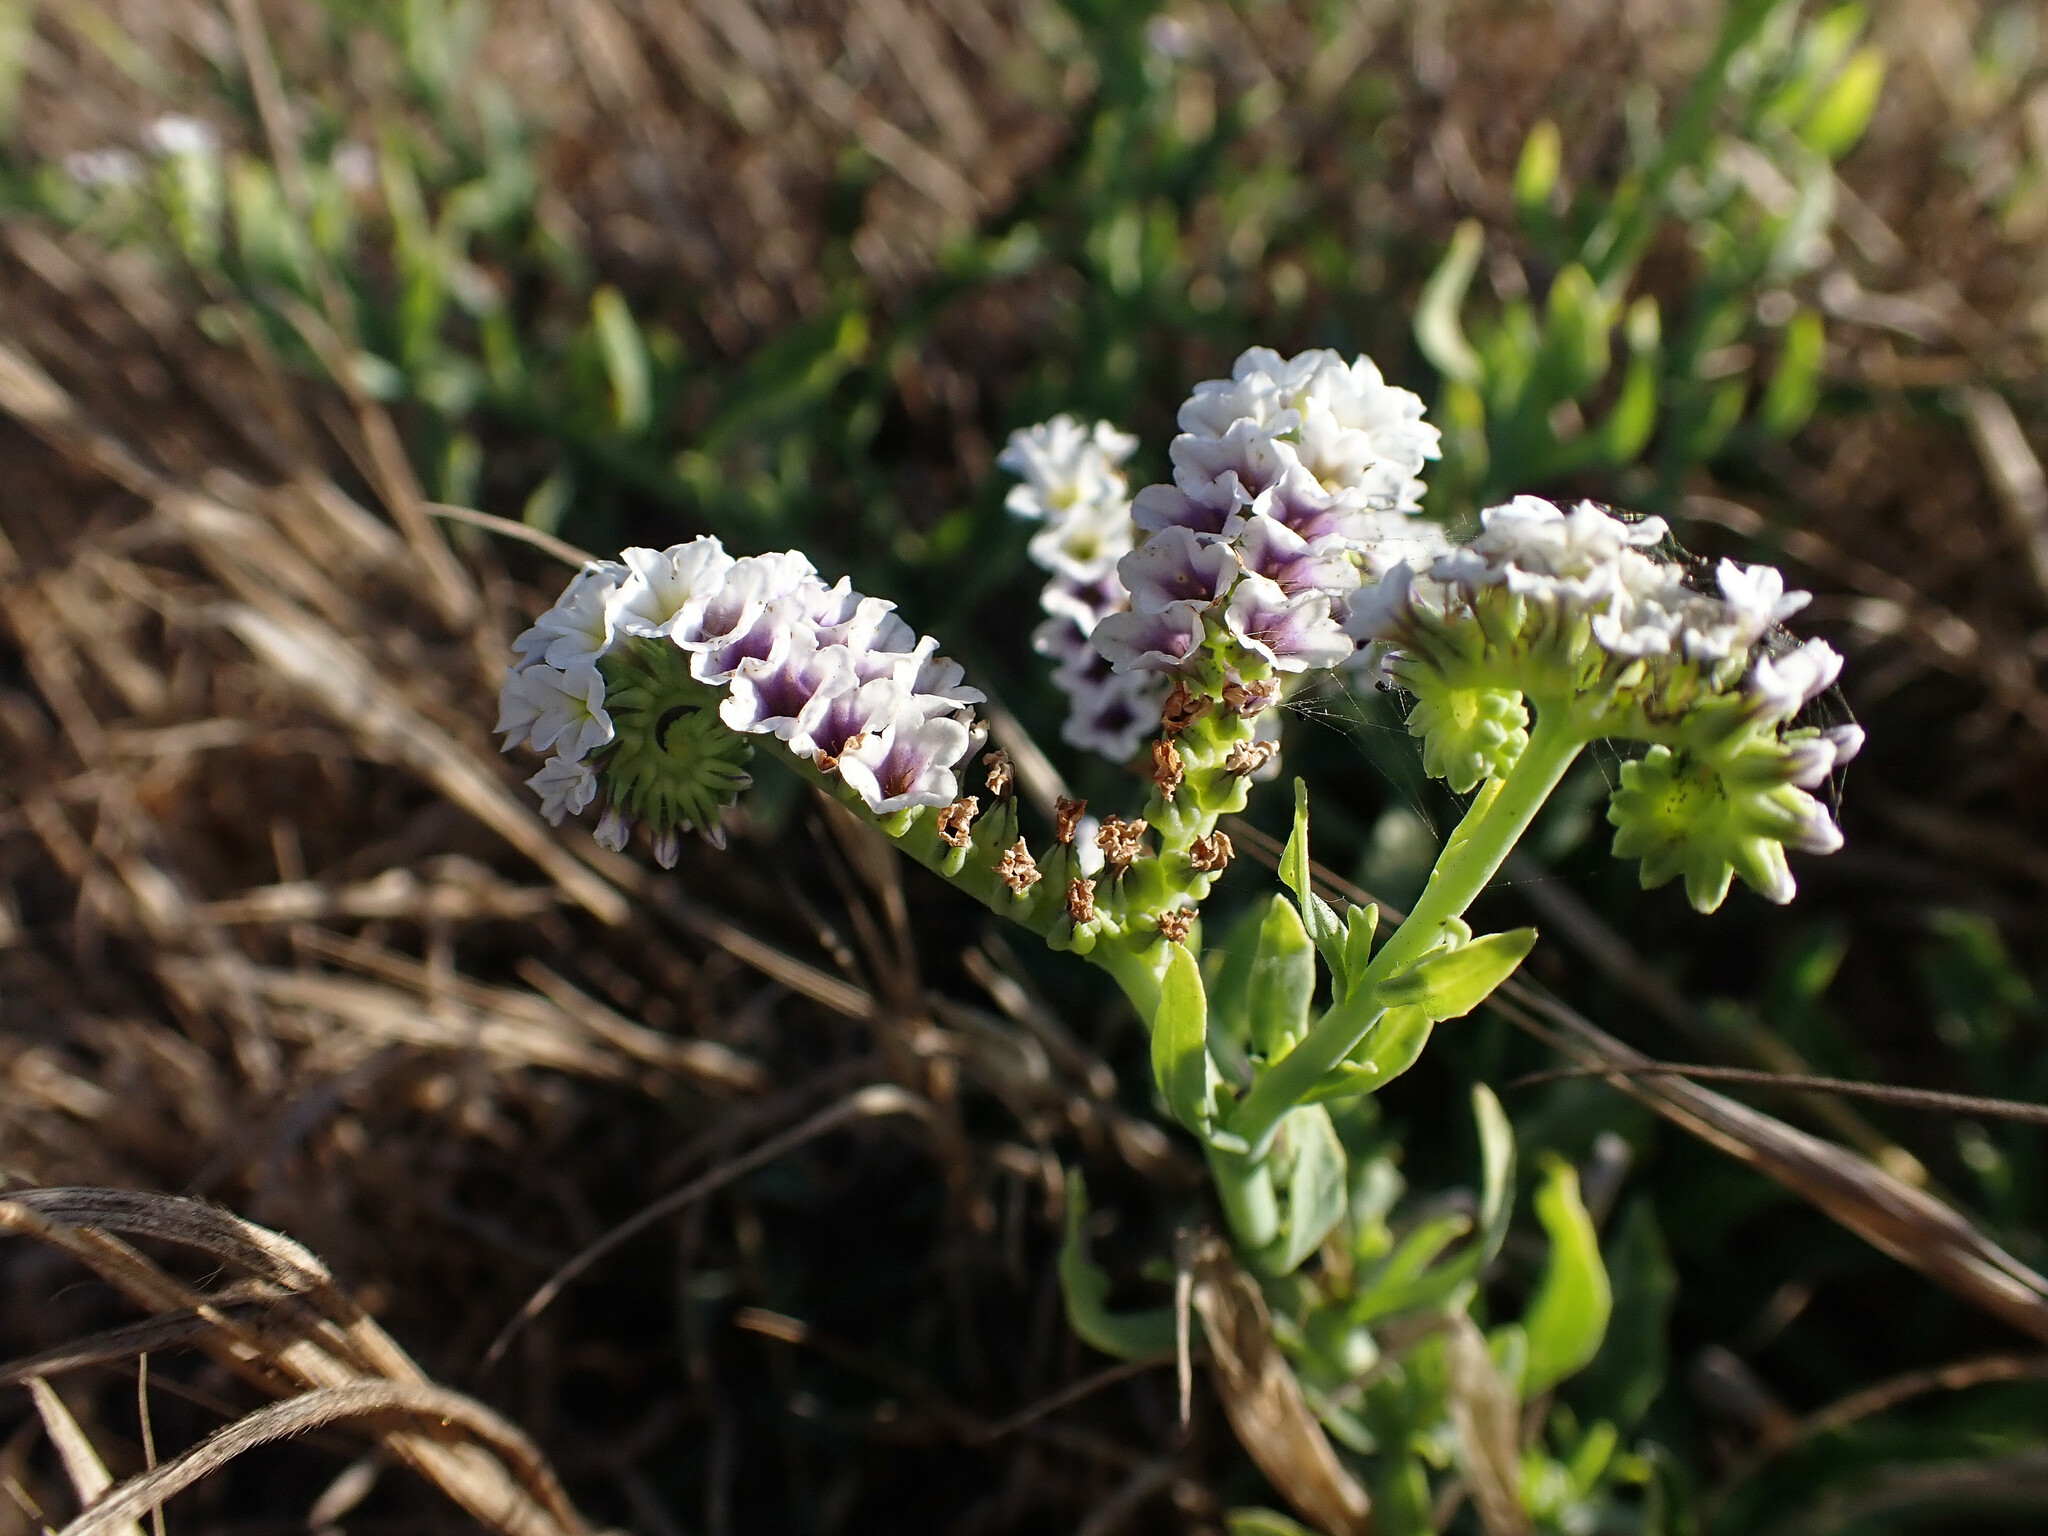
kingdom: Plantae
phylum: Tracheophyta
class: Magnoliopsida
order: Boraginales
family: Heliotropiaceae
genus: Heliotropium
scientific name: Heliotropium curassavicum
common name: Seaside heliotrope
